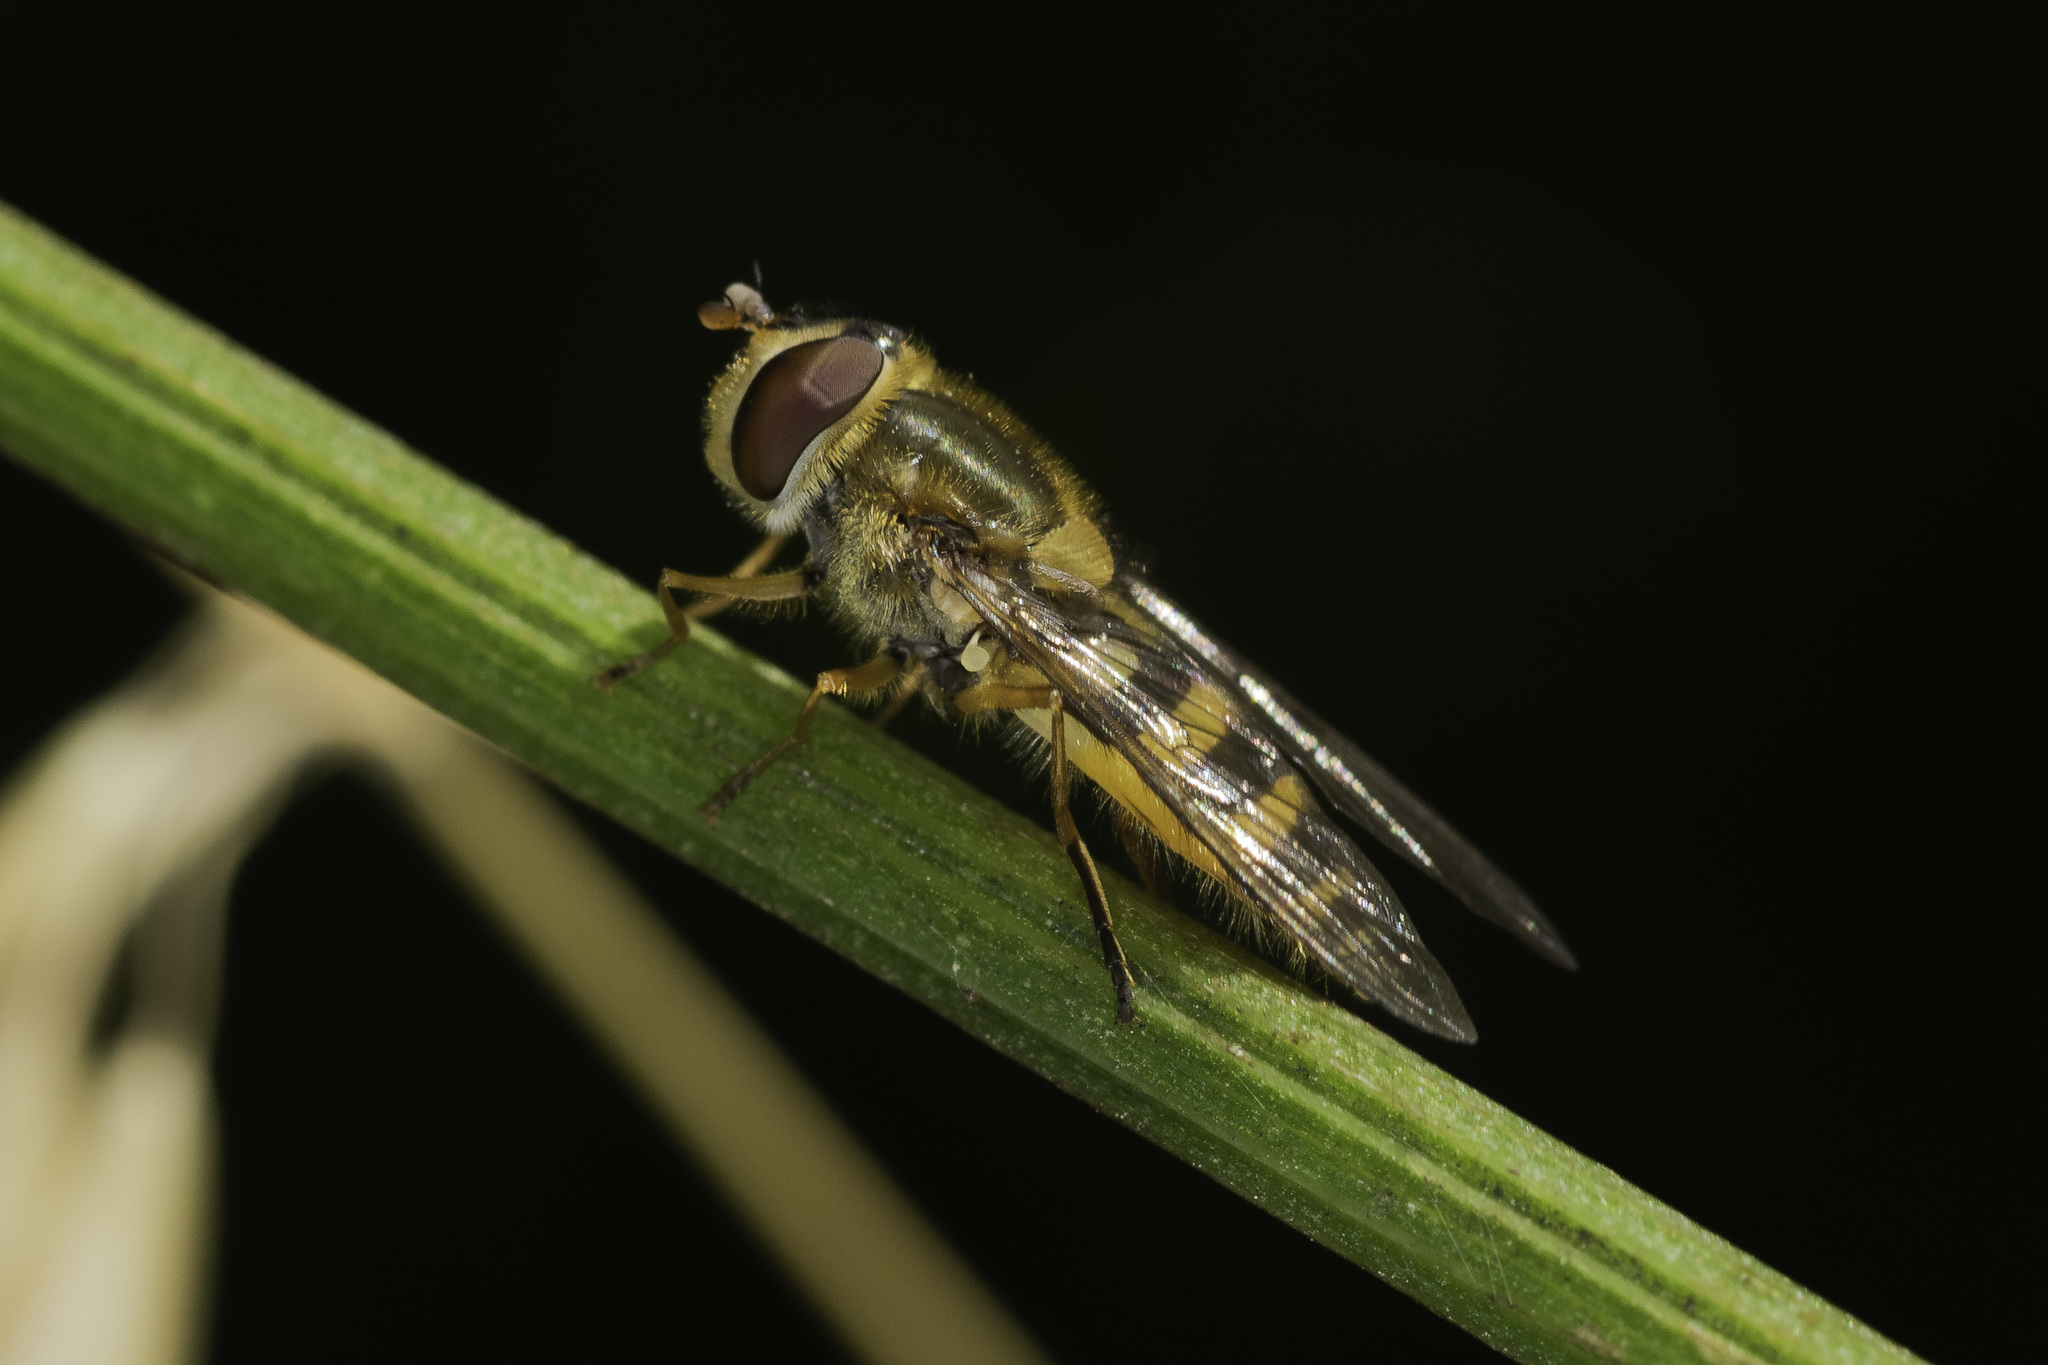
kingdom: Animalia
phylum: Arthropoda
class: Insecta
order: Diptera
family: Syrphidae
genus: Syrphus
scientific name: Syrphus ribesii
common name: Common flower fly
